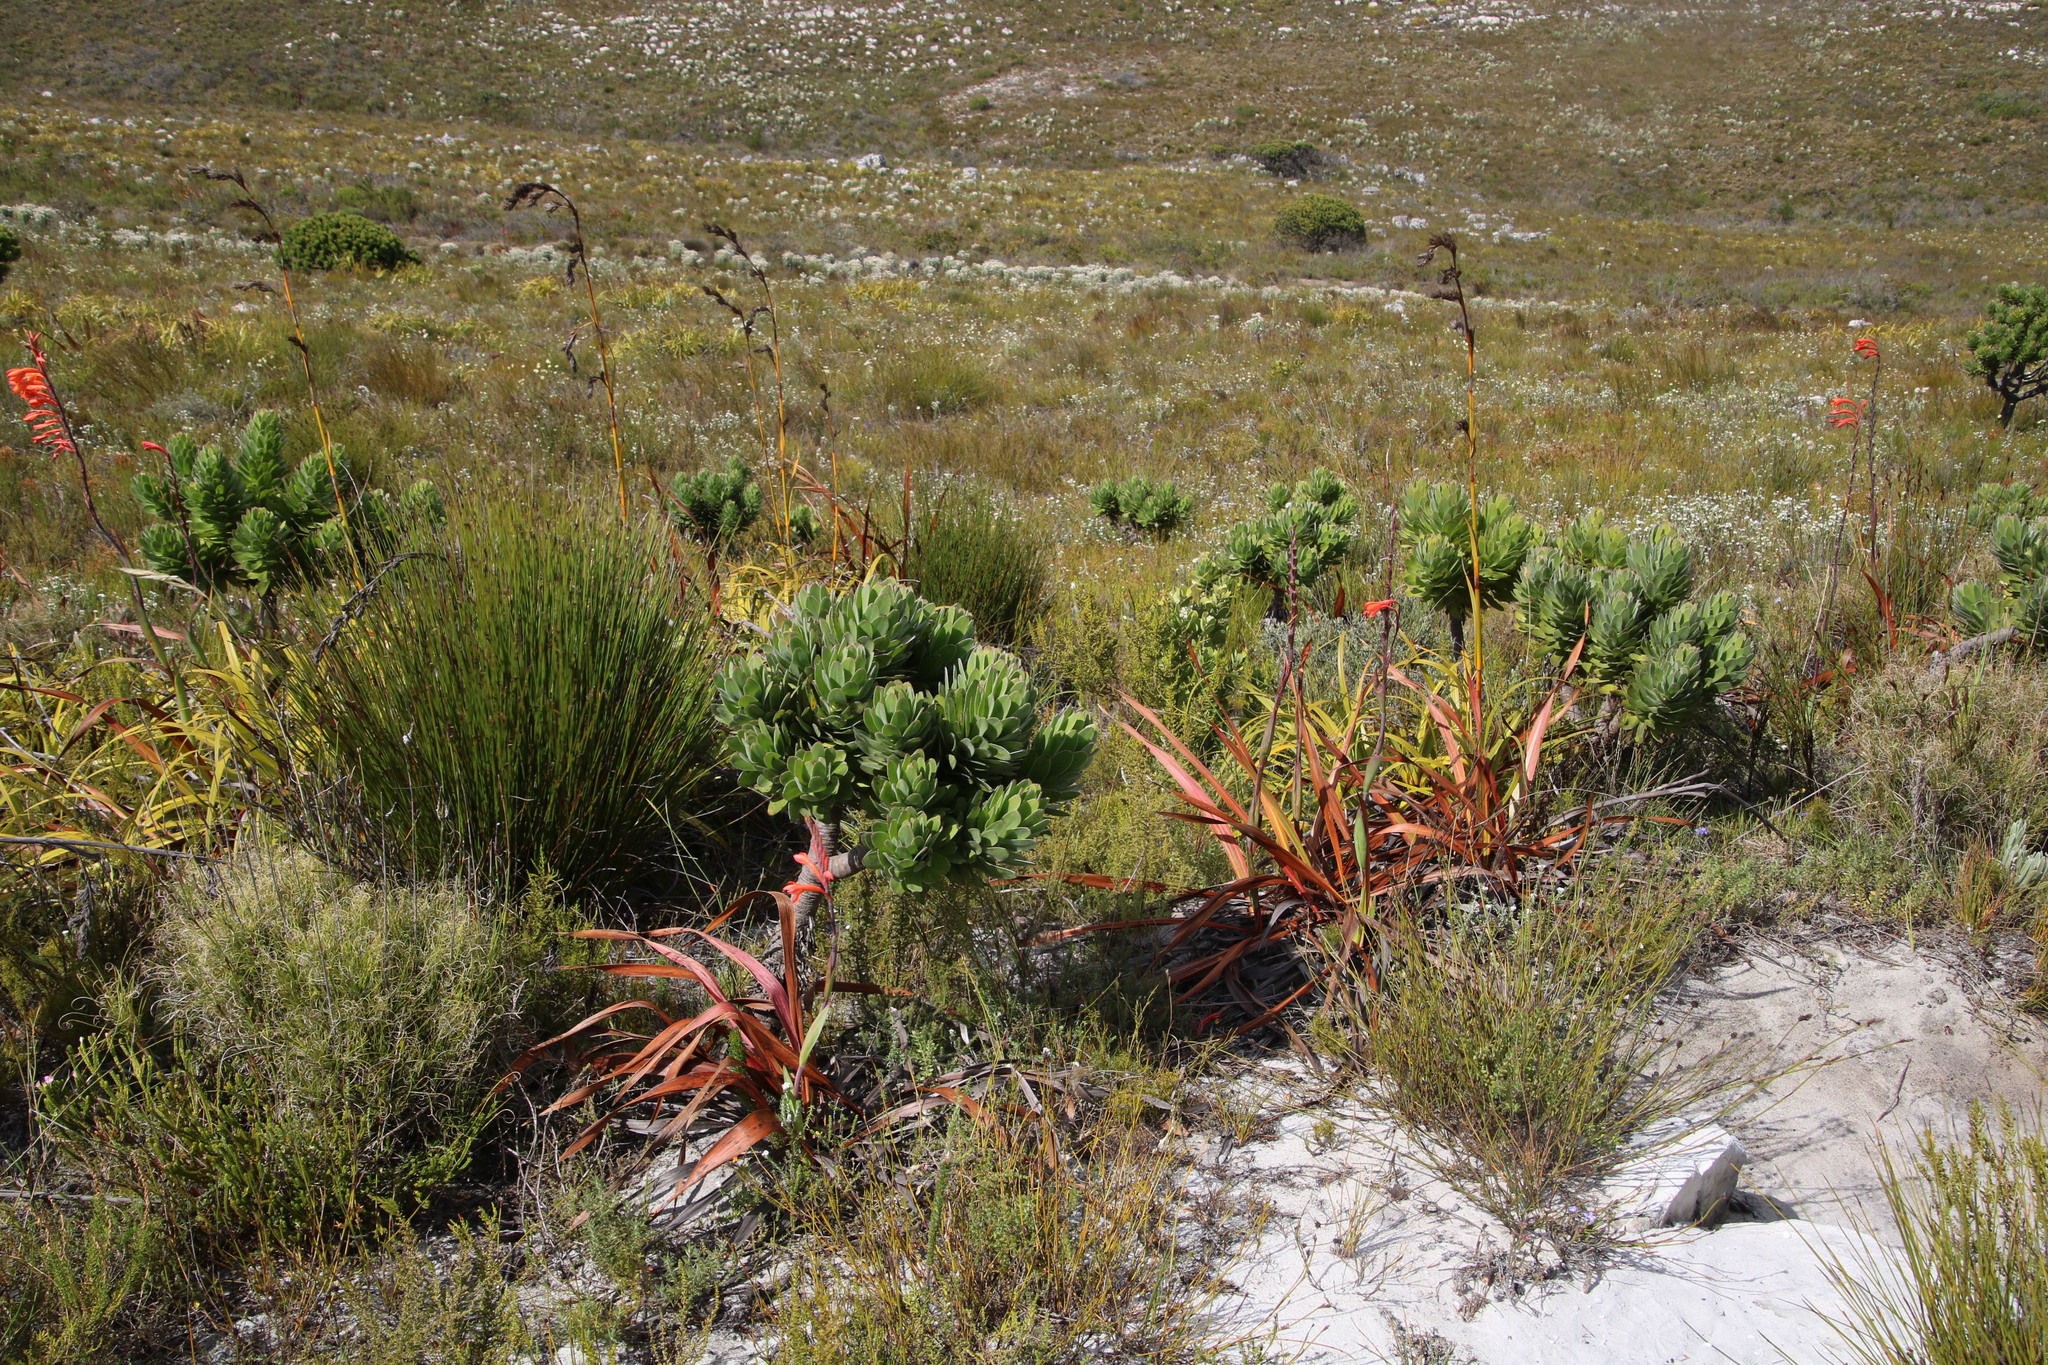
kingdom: Plantae
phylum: Tracheophyta
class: Liliopsida
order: Asparagales
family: Iridaceae
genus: Watsonia
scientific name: Watsonia tabularis
